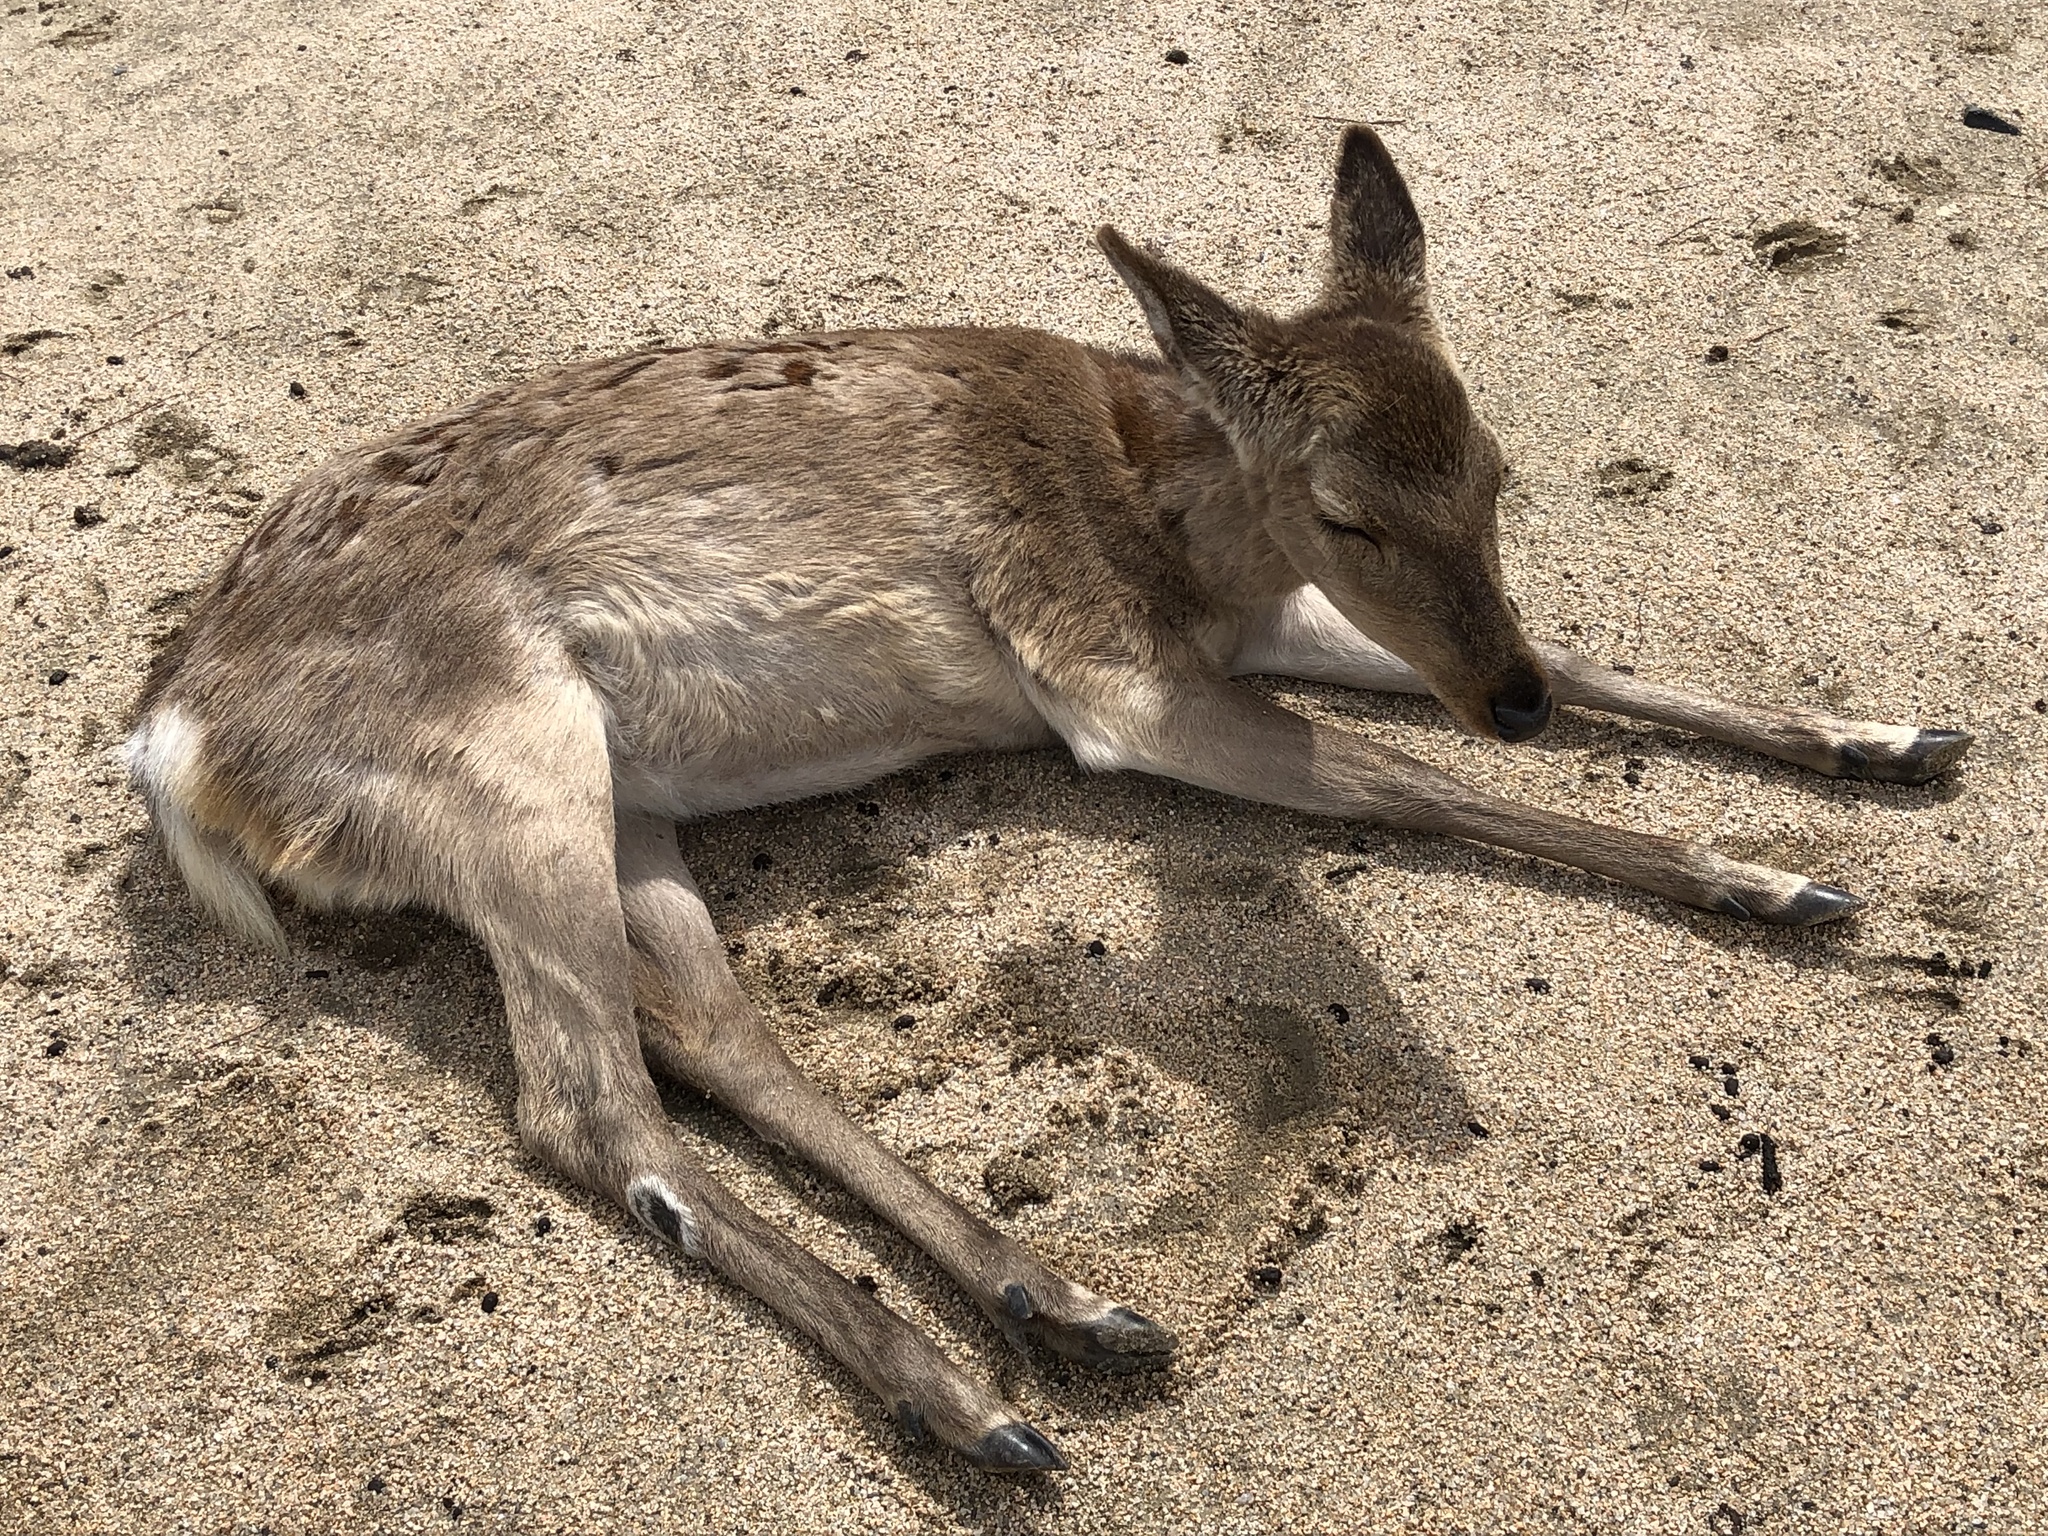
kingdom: Animalia
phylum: Chordata
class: Mammalia
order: Artiodactyla
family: Cervidae
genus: Cervus
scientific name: Cervus nippon
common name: Sika deer
